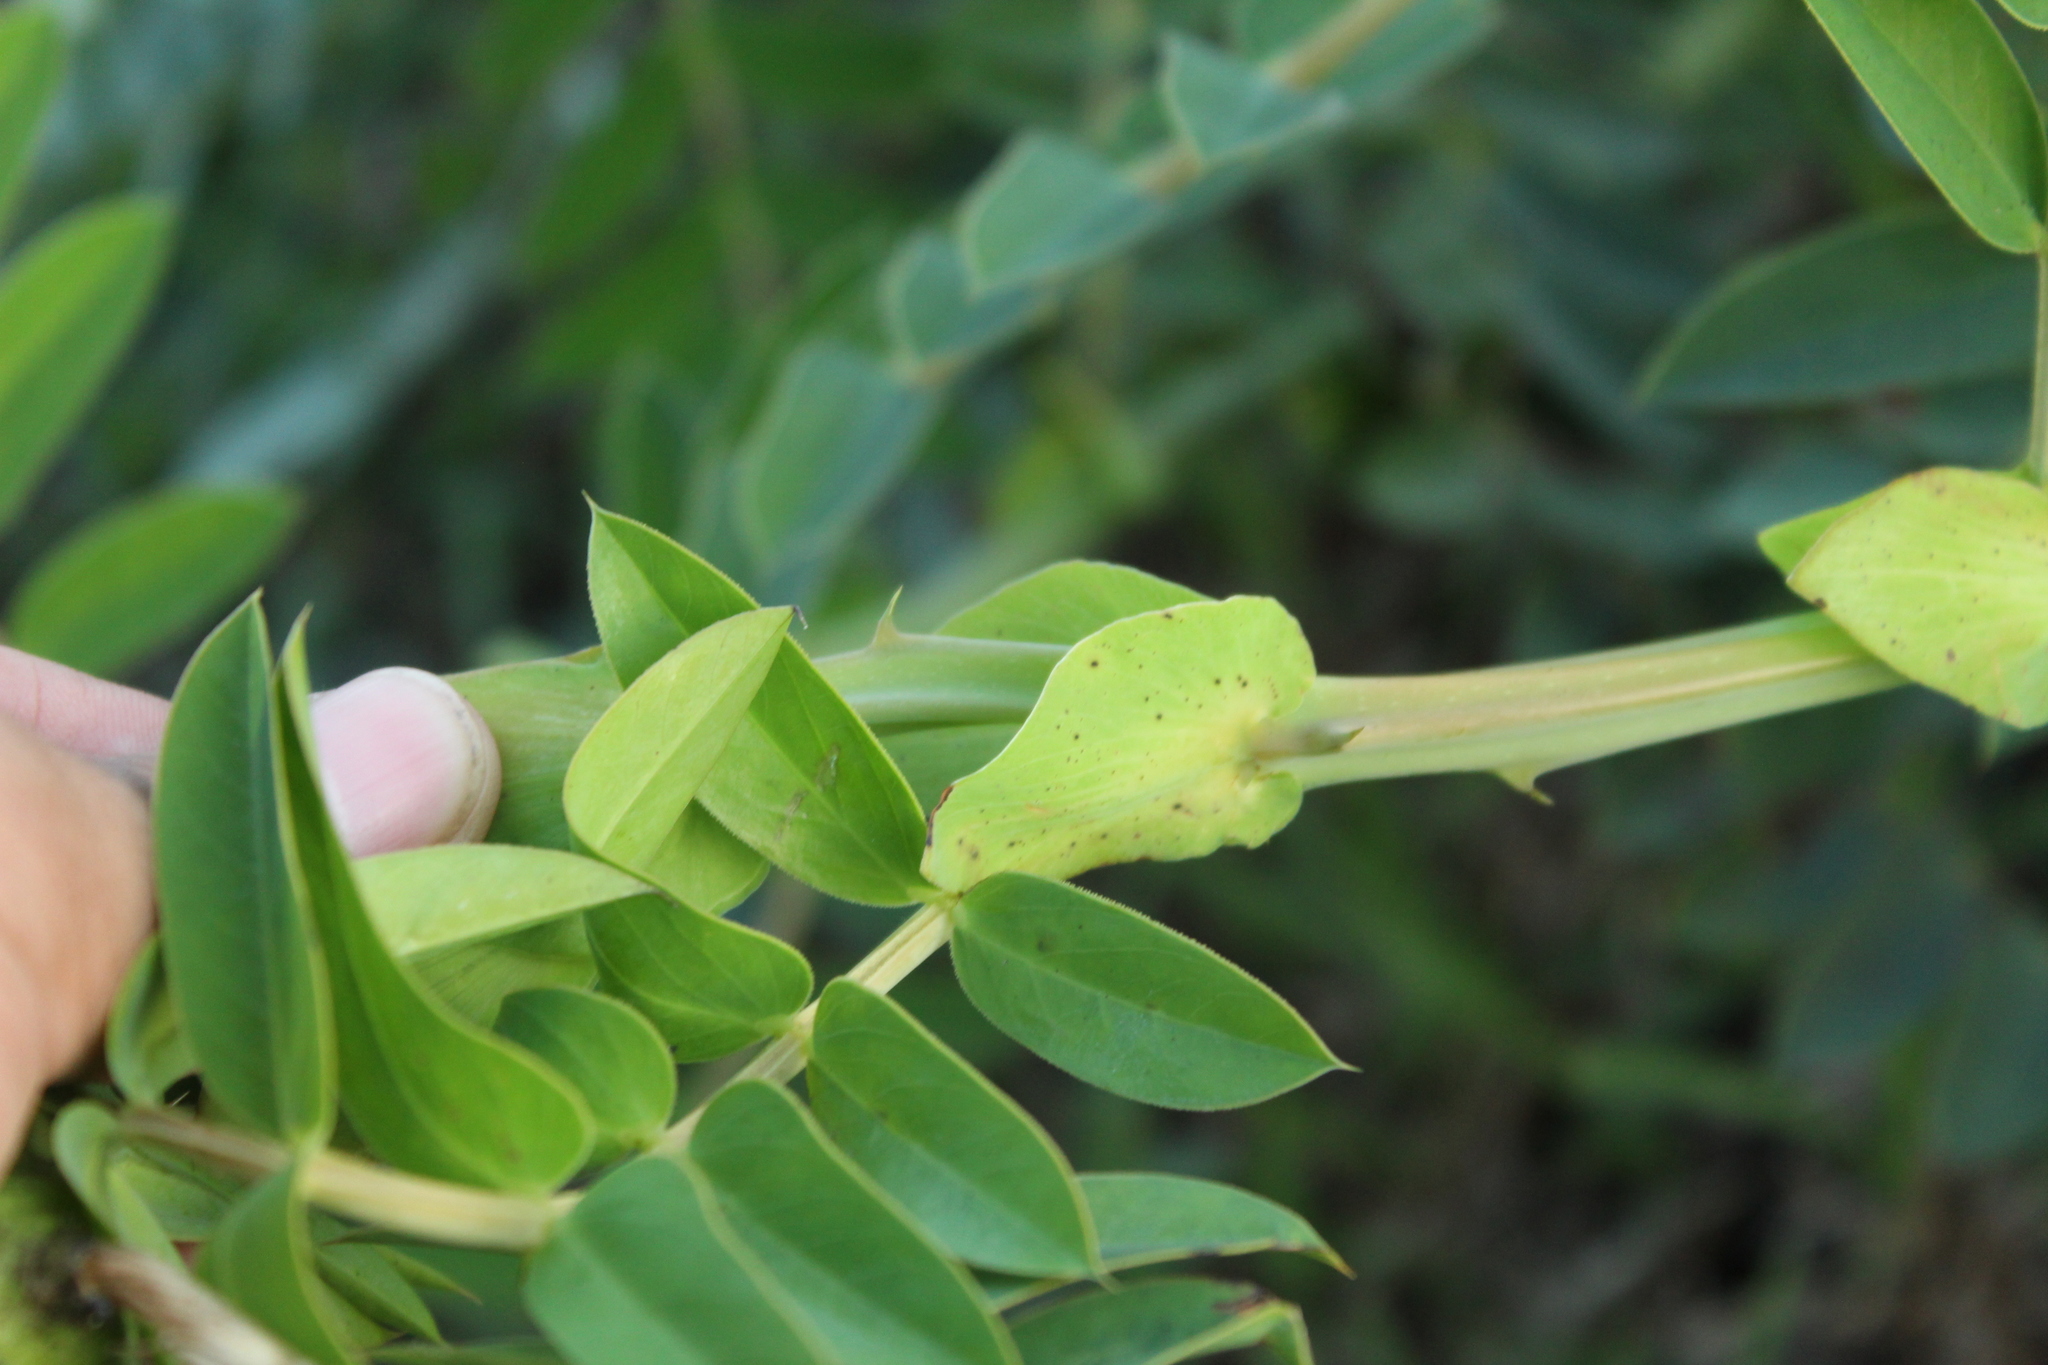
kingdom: Plantae
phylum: Tracheophyta
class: Magnoliopsida
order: Fabales
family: Fabaceae
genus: Senna
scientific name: Senna aculeata
